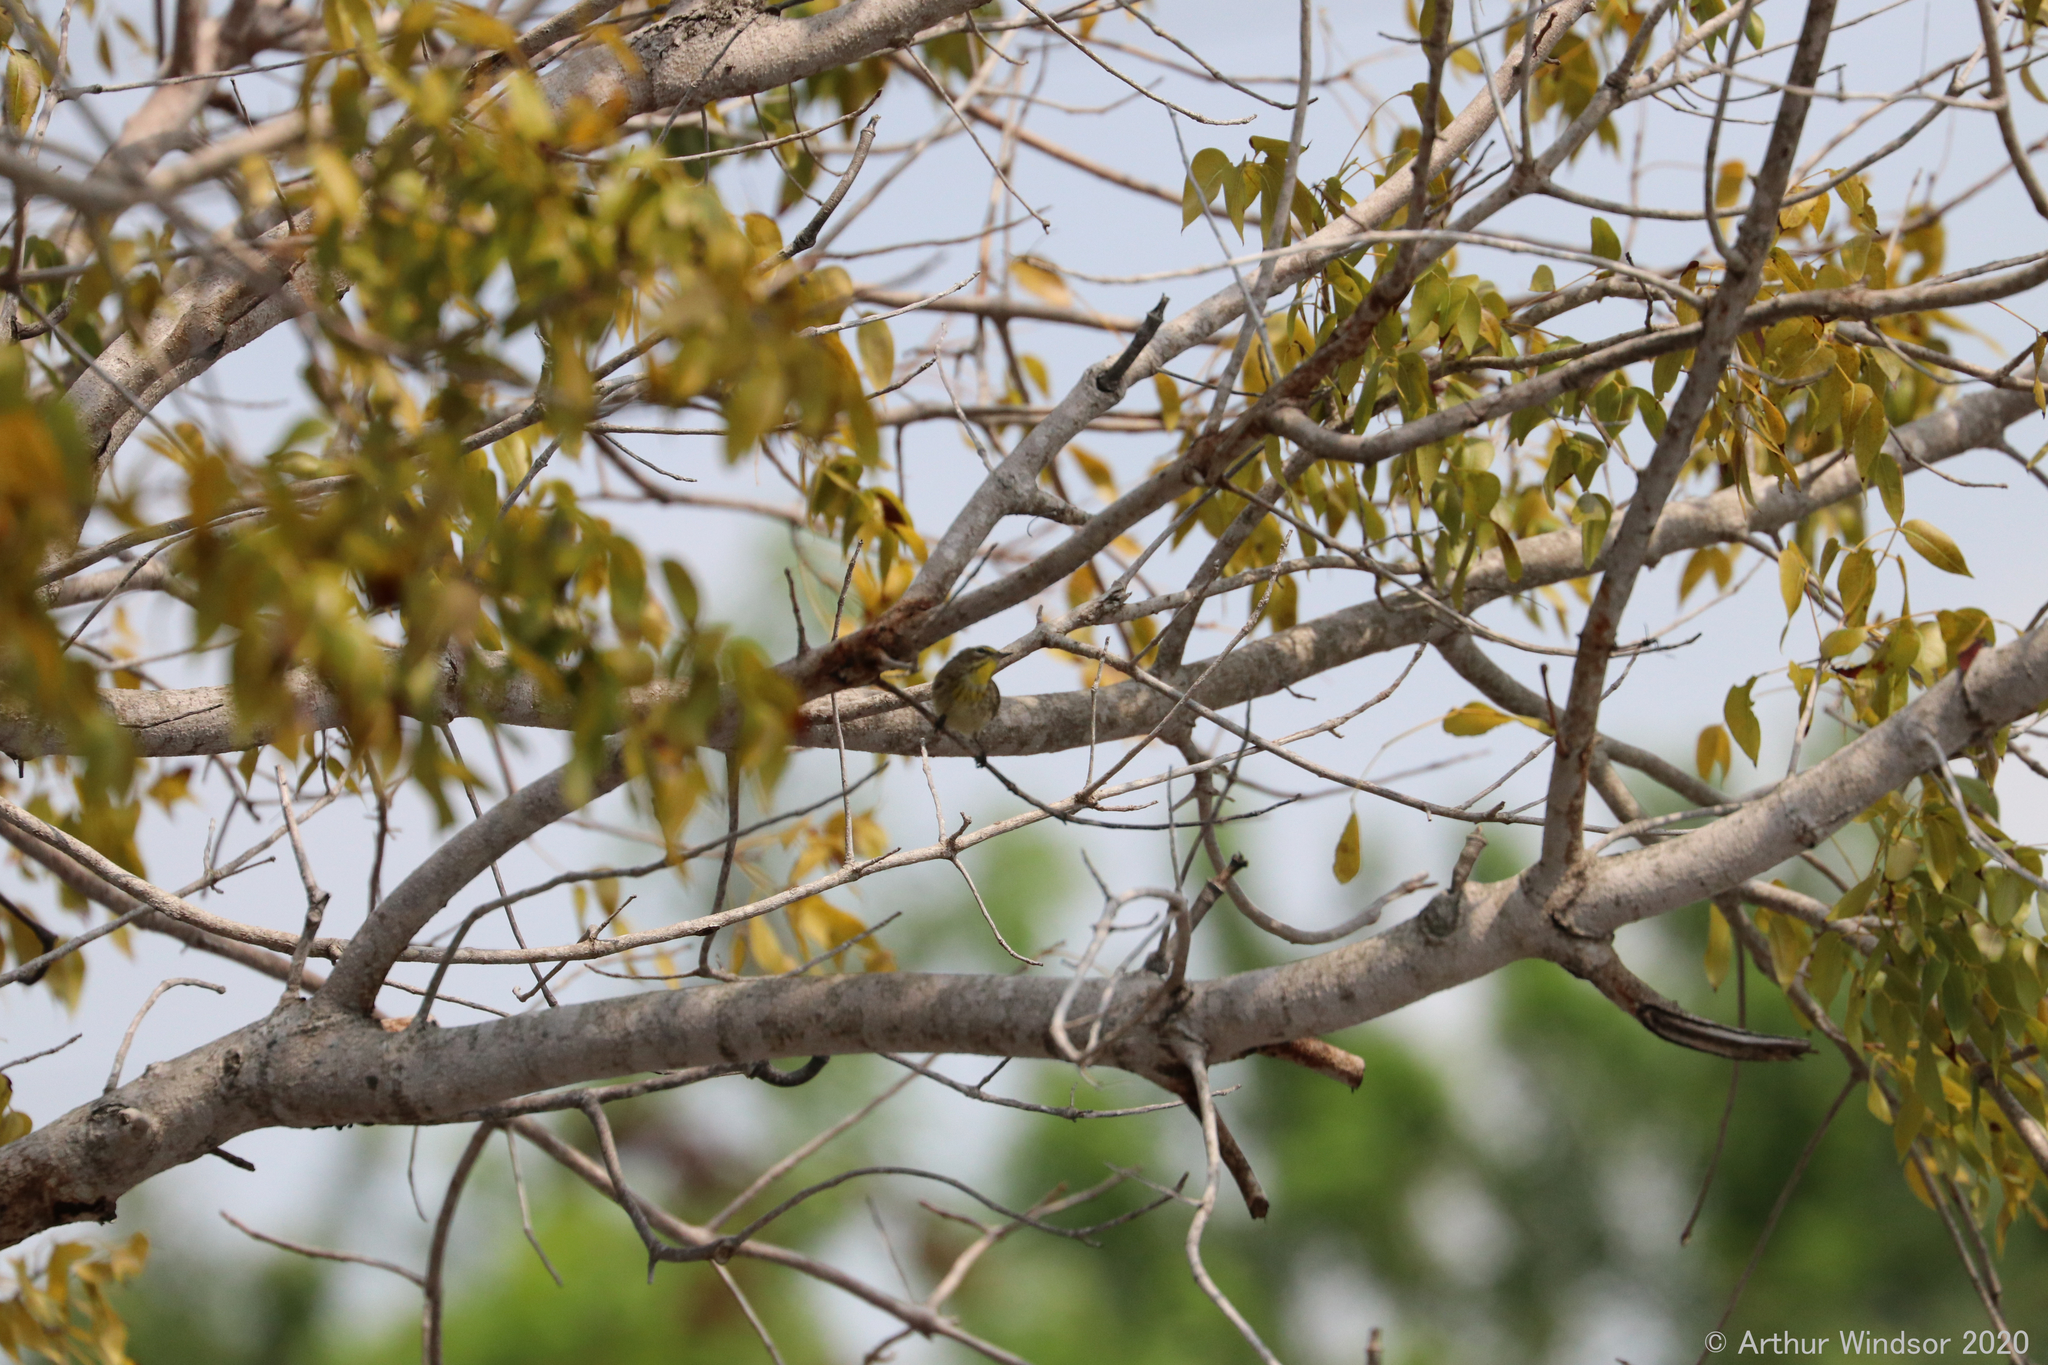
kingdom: Animalia
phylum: Chordata
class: Aves
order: Passeriformes
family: Parulidae
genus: Setophaga
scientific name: Setophaga palmarum
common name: Palm warbler
